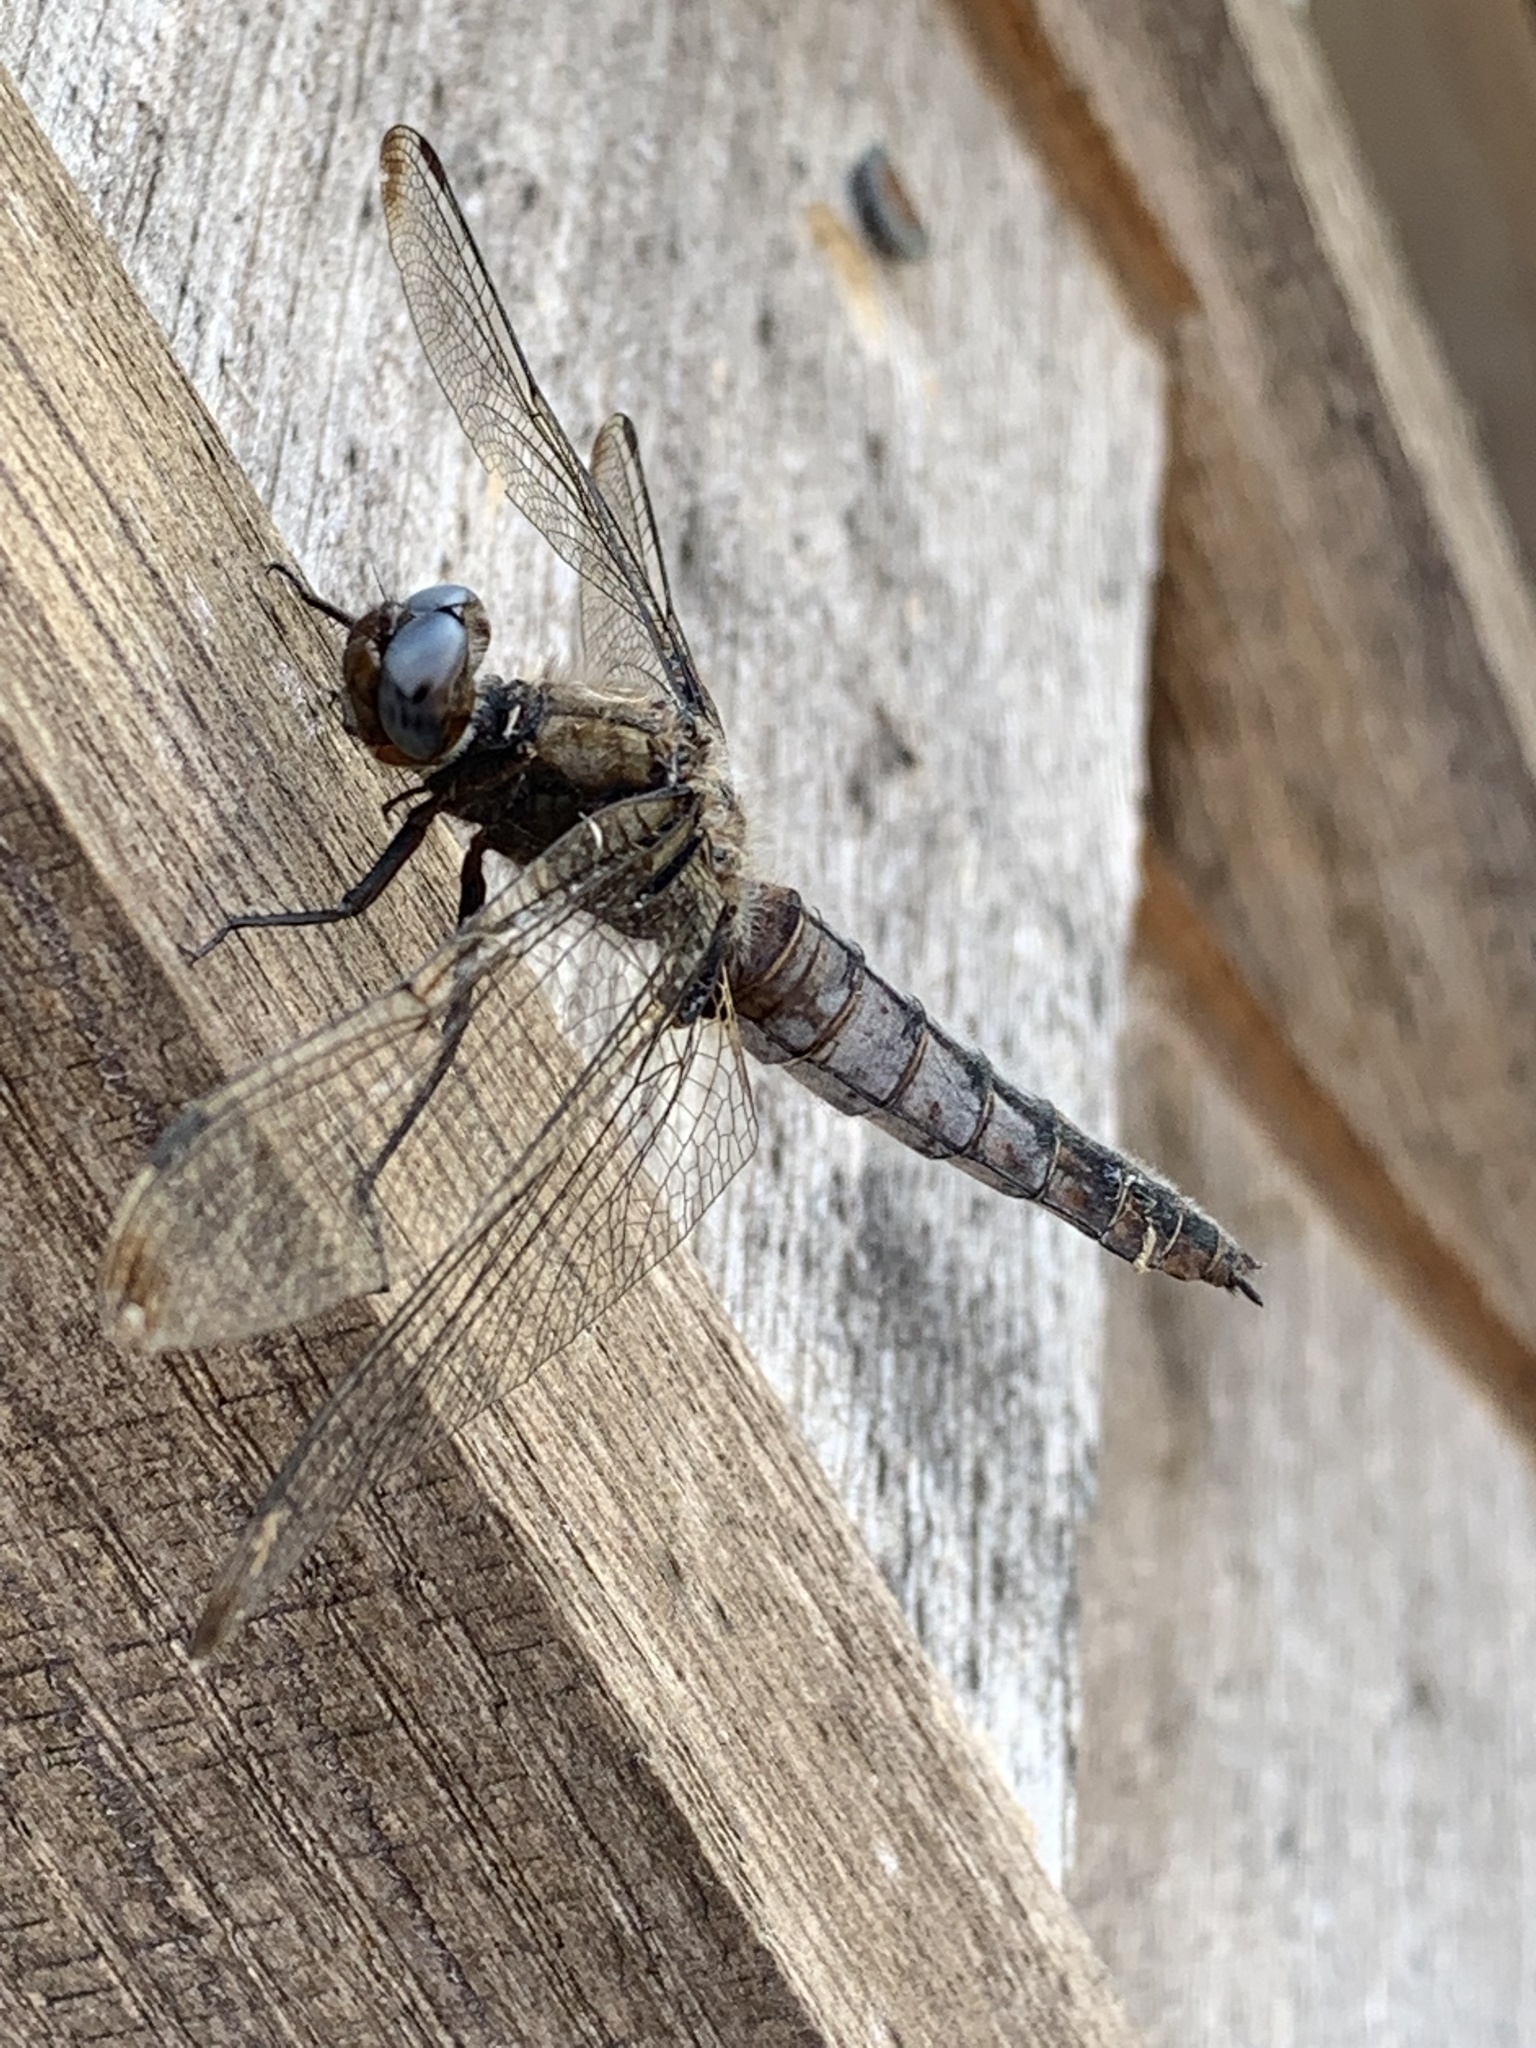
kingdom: Animalia
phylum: Arthropoda
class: Insecta
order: Odonata
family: Libellulidae
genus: Libellula
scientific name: Libellula fulva
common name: Blue chaser
